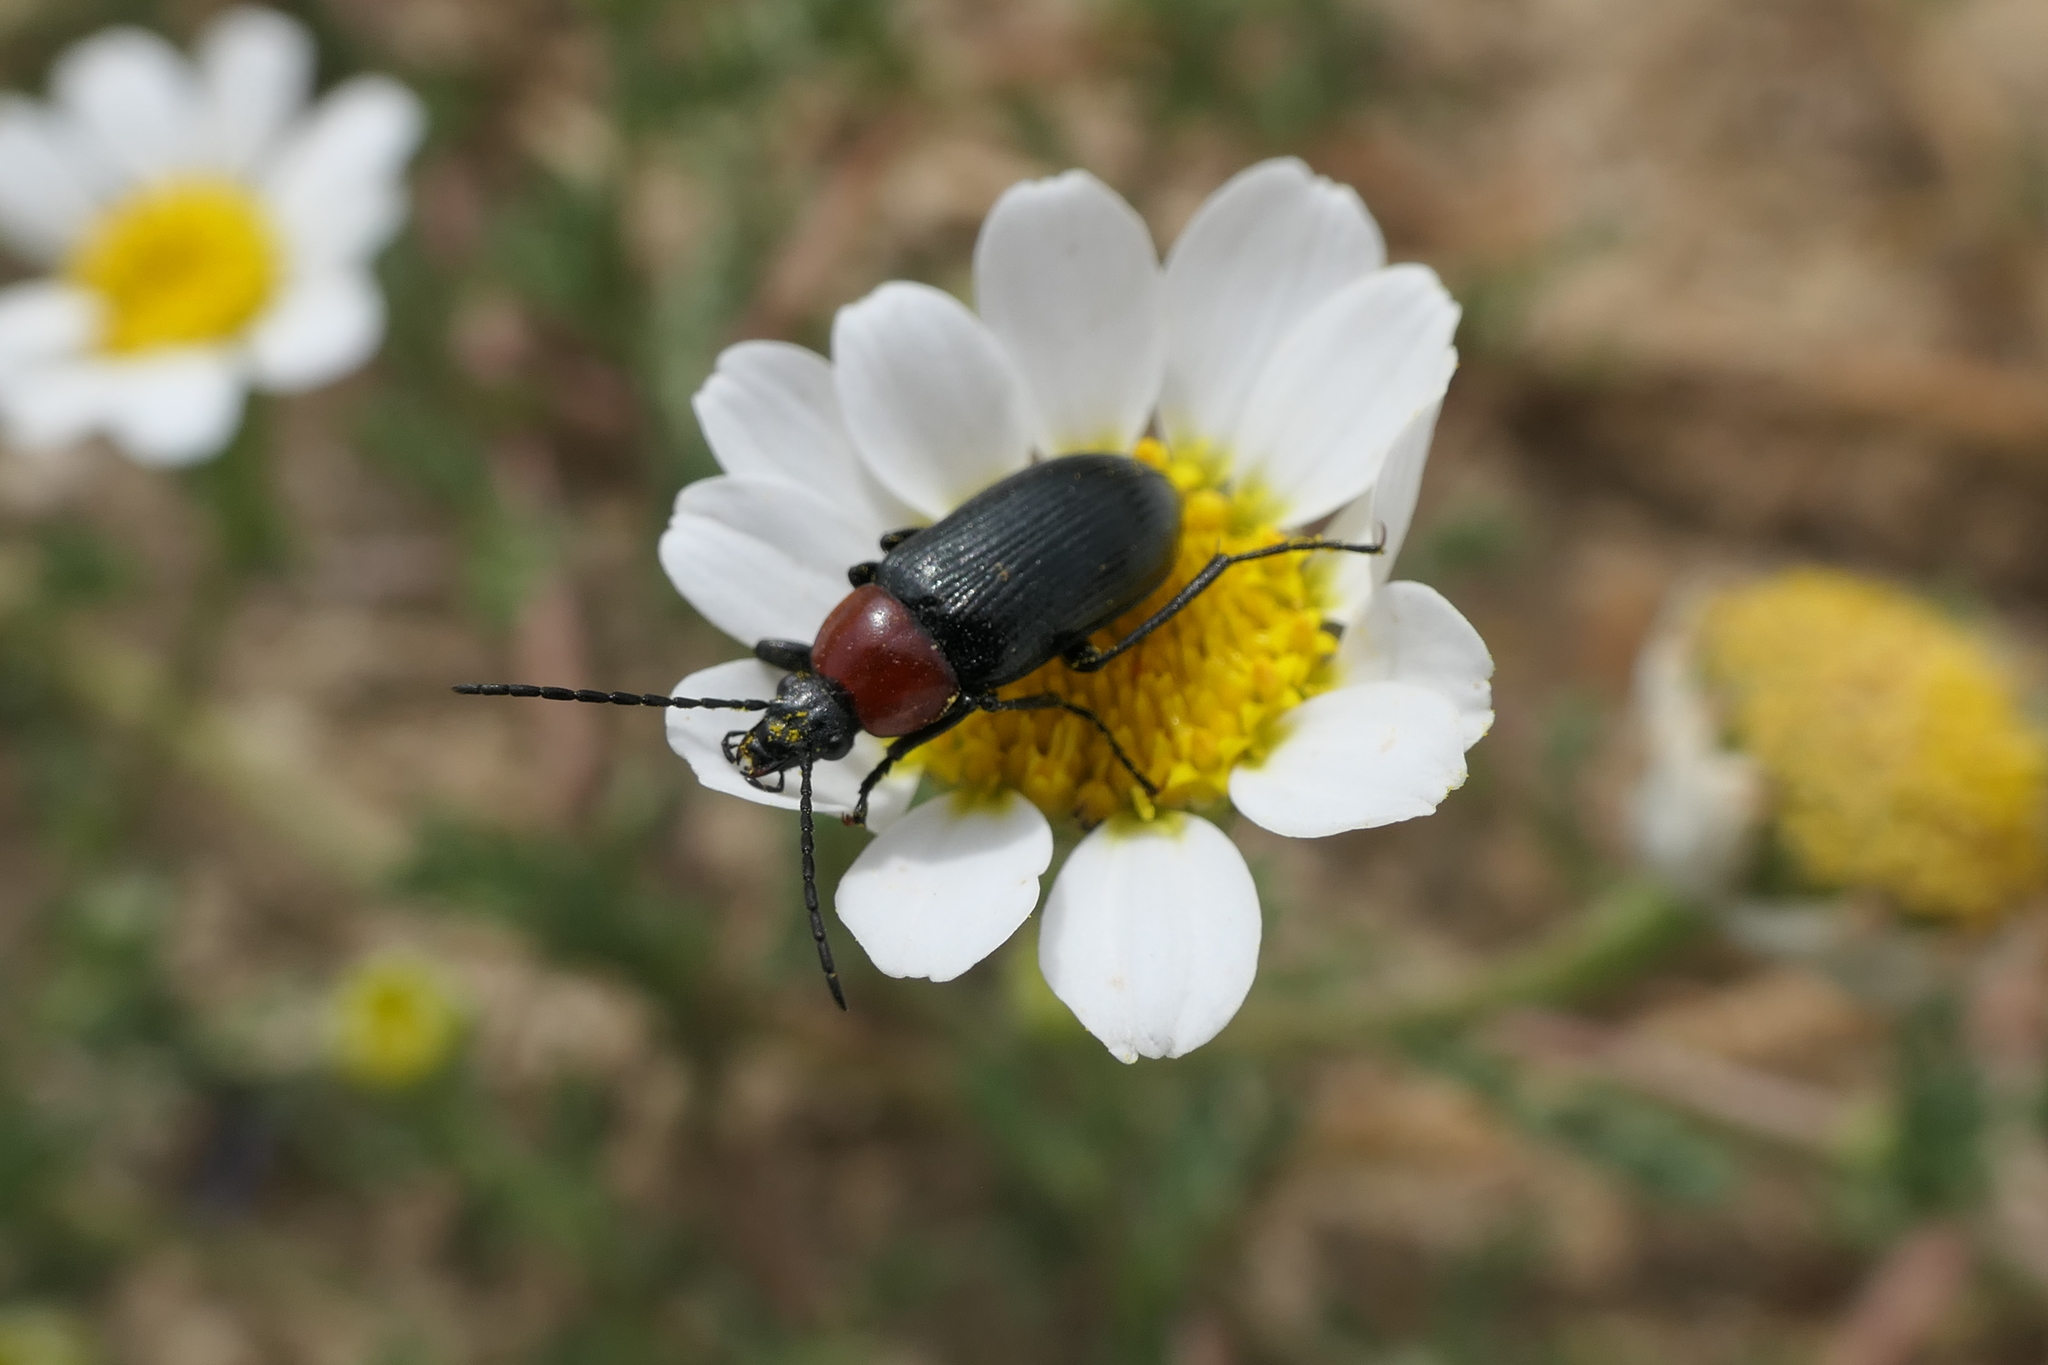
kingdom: Animalia
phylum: Arthropoda
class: Insecta
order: Coleoptera
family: Tenebrionidae
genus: Heliotaurus
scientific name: Heliotaurus ruficollis
